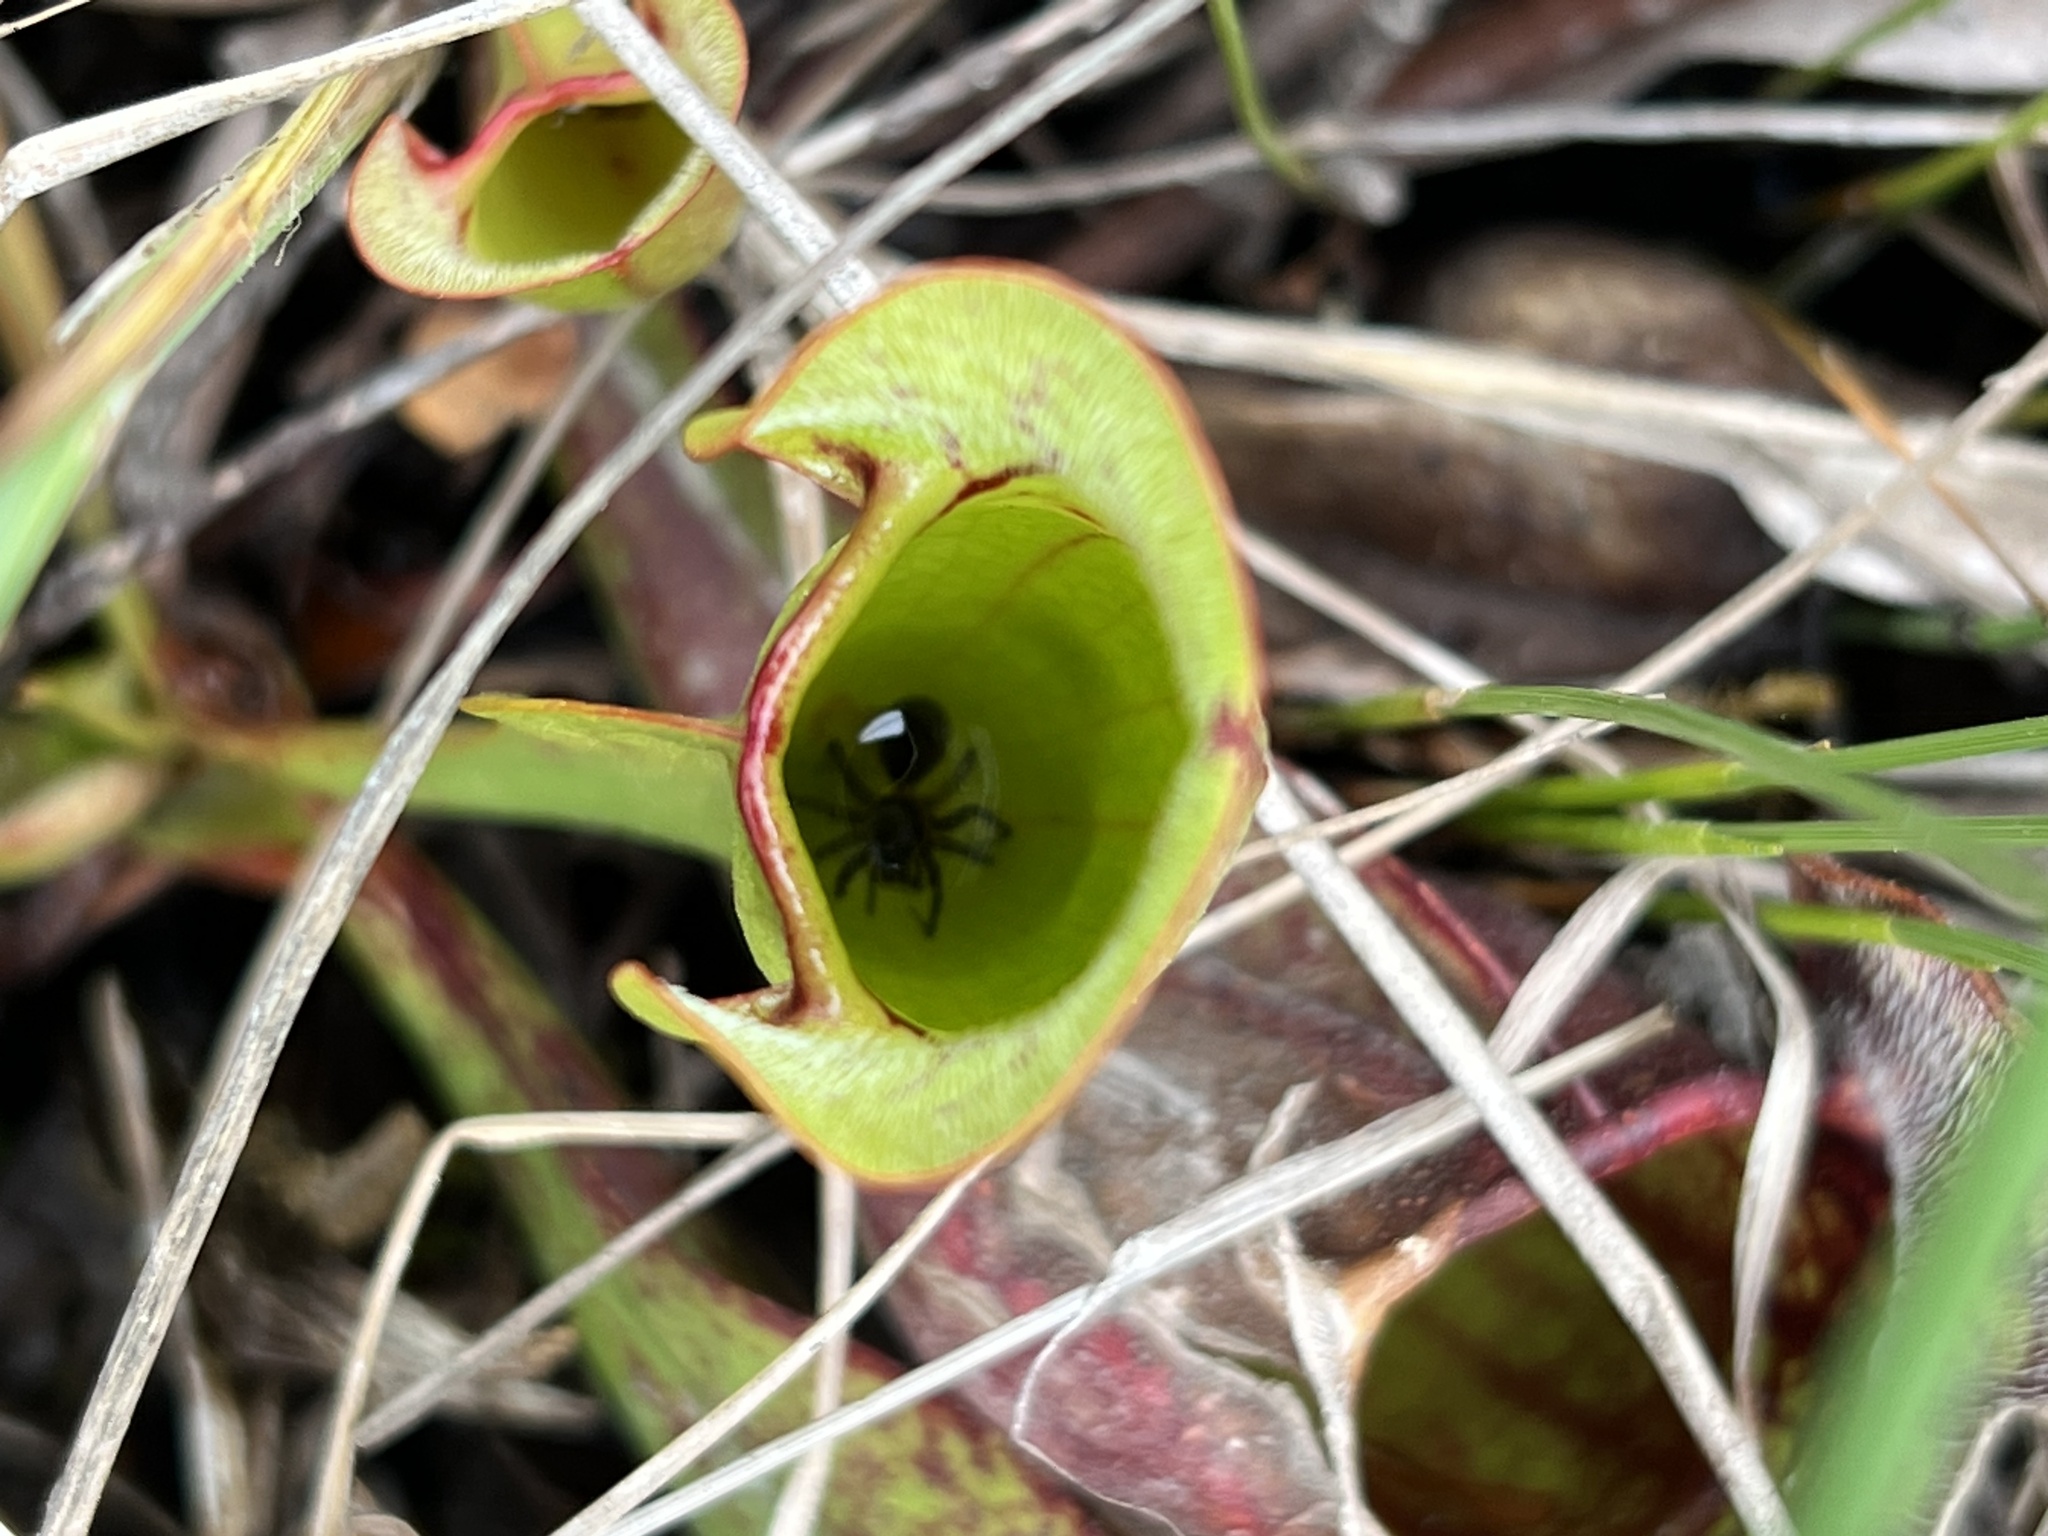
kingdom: Plantae
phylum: Tracheophyta
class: Magnoliopsida
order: Ericales
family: Sarraceniaceae
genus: Sarracenia
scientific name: Sarracenia purpurea
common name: Pitcherplant
